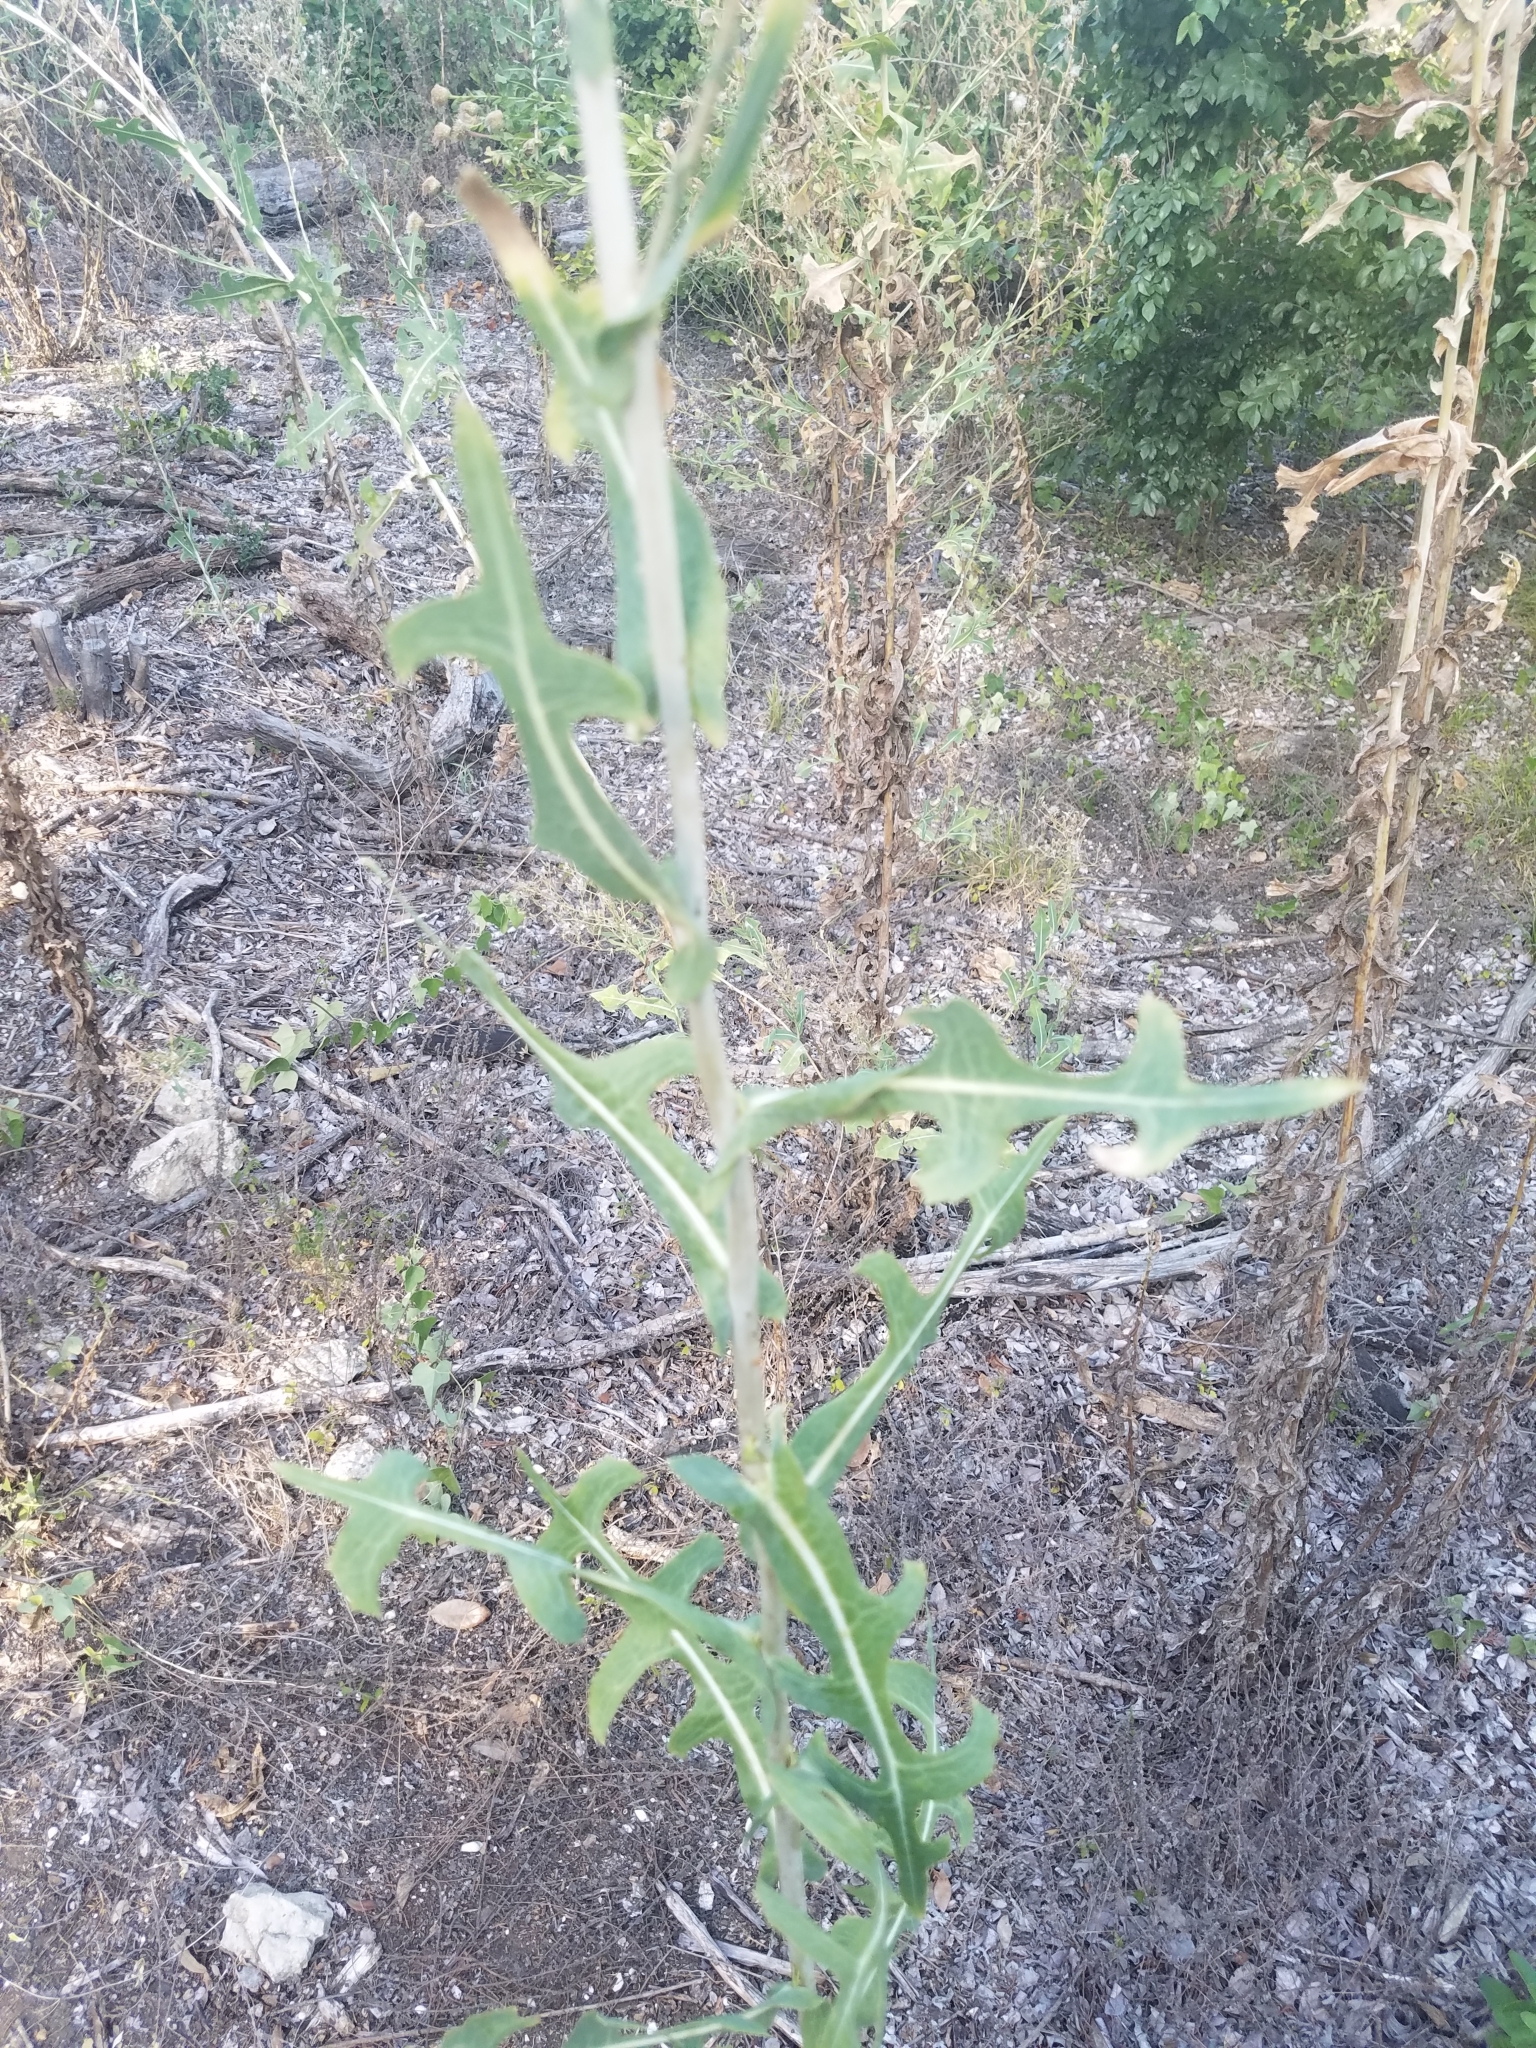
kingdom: Plantae
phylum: Tracheophyta
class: Magnoliopsida
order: Asterales
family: Asteraceae
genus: Lactuca
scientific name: Lactuca serriola
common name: Prickly lettuce
